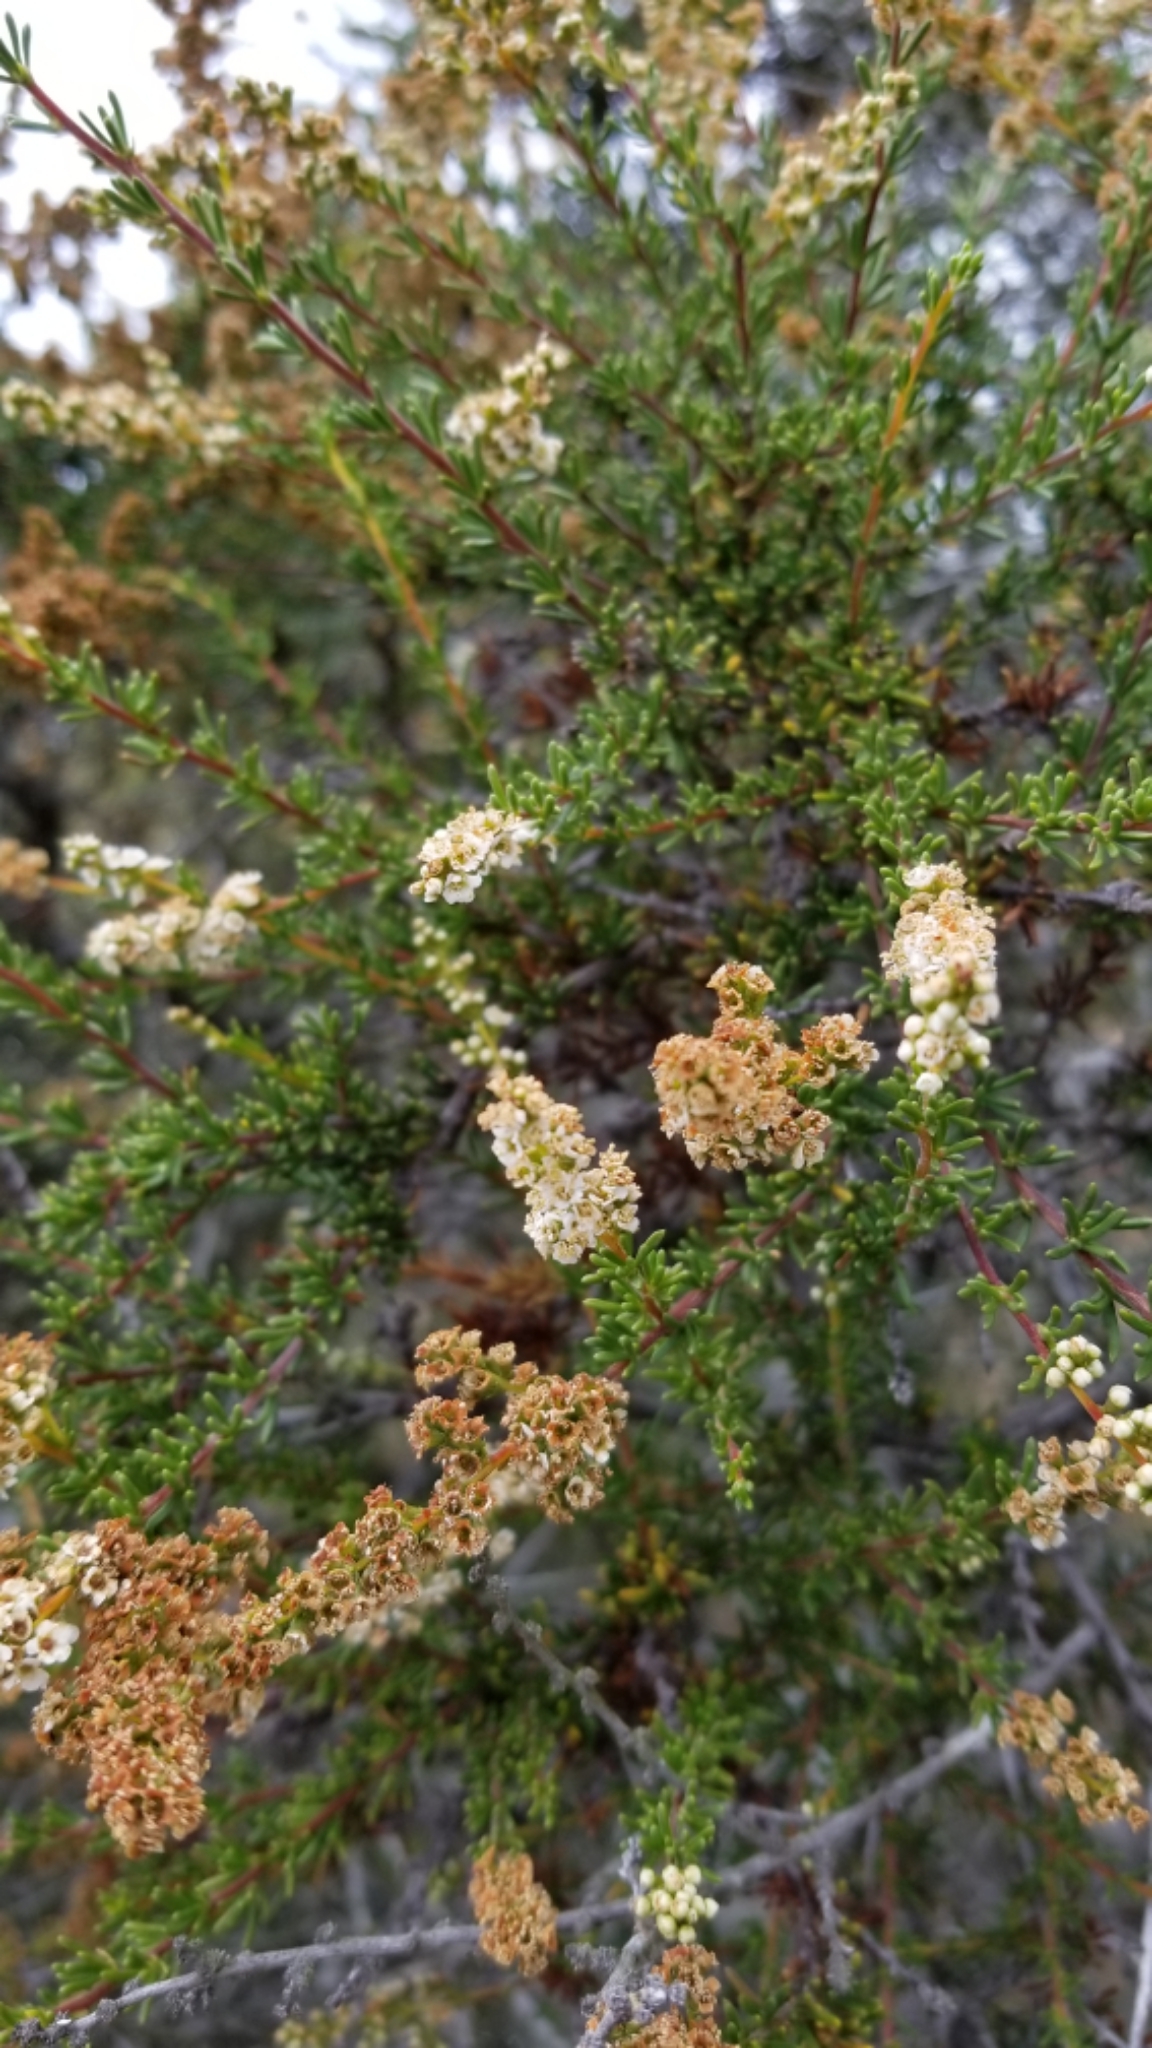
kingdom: Plantae
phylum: Tracheophyta
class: Magnoliopsida
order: Rosales
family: Rosaceae
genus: Adenostoma
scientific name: Adenostoma fasciculatum
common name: Chamise
